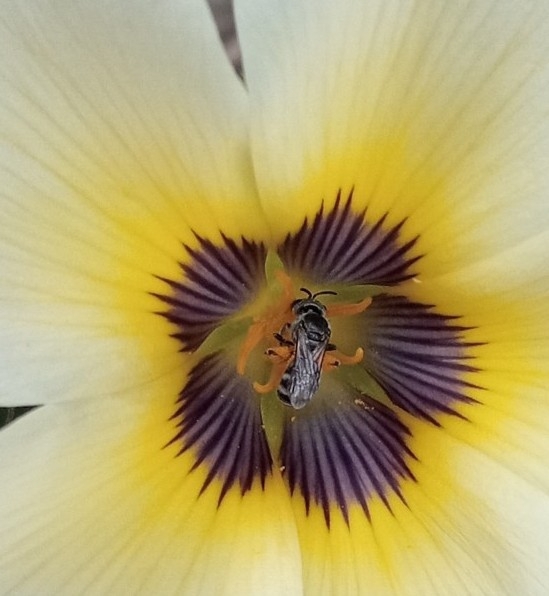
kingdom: Animalia
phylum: Arthropoda
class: Insecta
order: Hymenoptera
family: Halictidae
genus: Ctenonomia
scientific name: Ctenonomia
